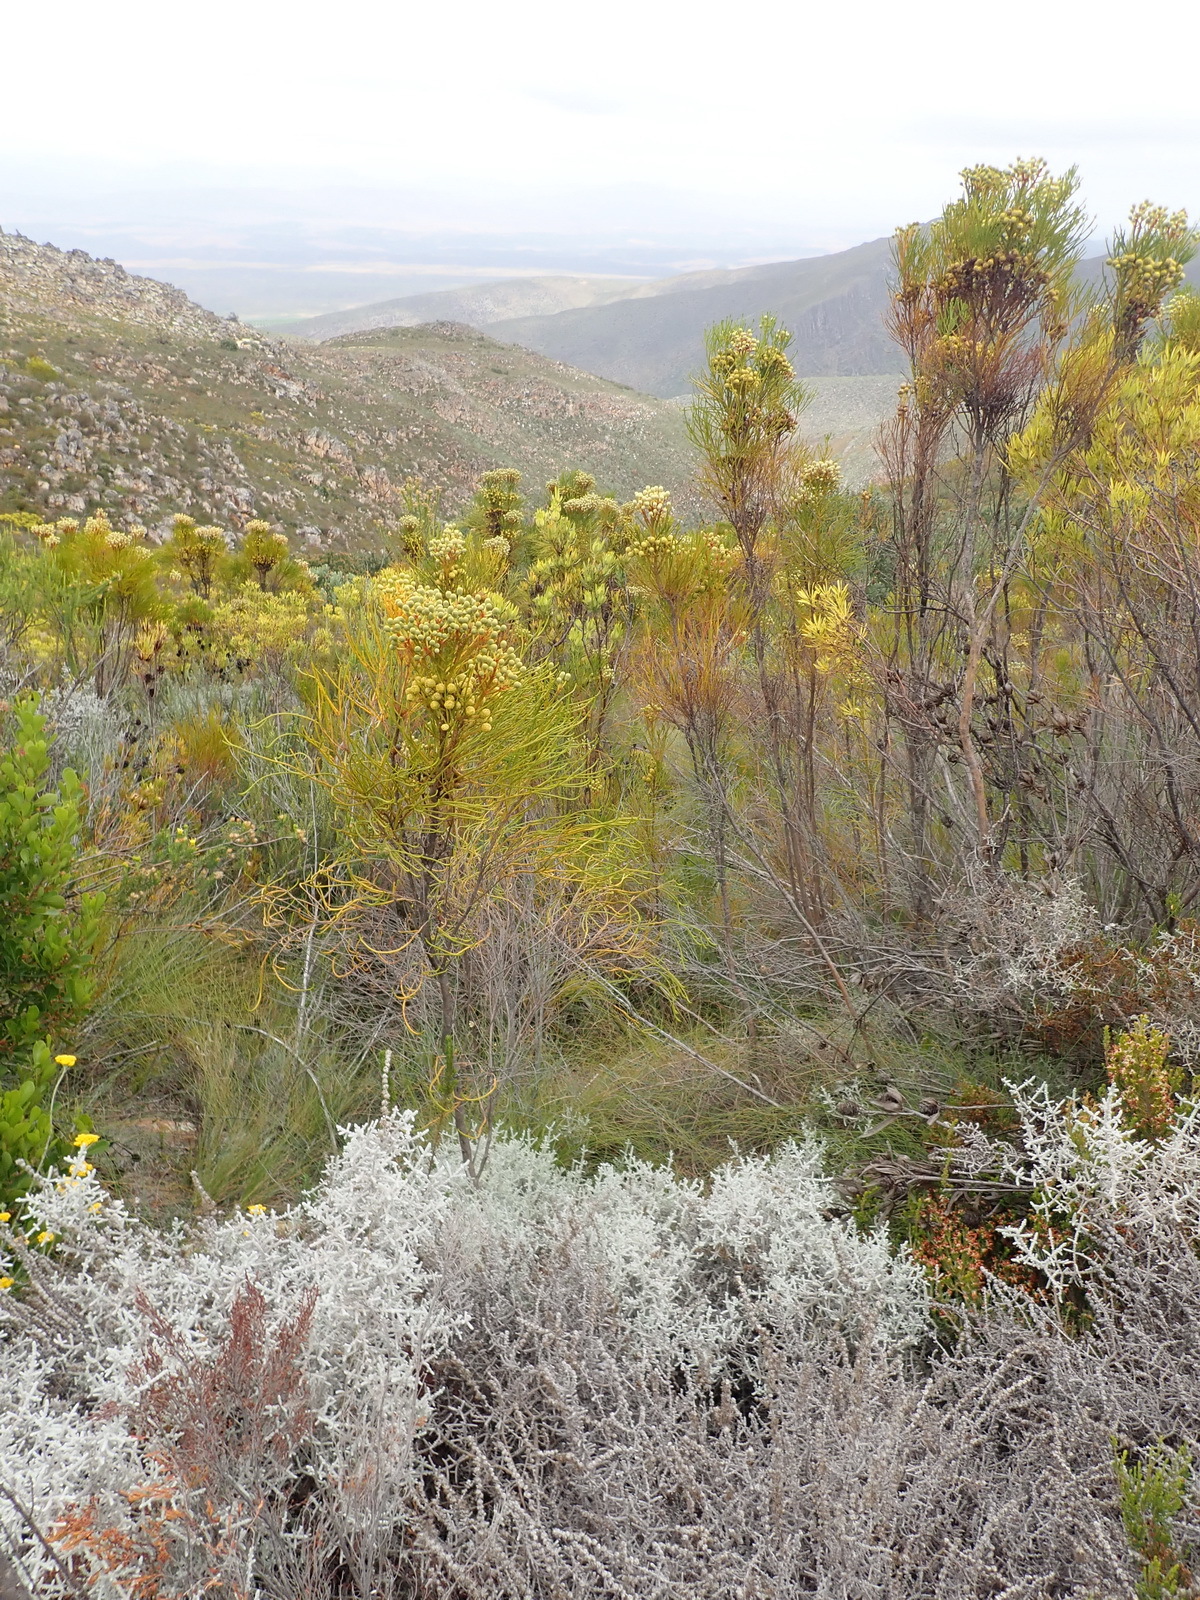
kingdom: Plantae
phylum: Tracheophyta
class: Magnoliopsida
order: Bruniales
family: Bruniaceae
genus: Berzelia
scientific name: Berzelia intermedia
